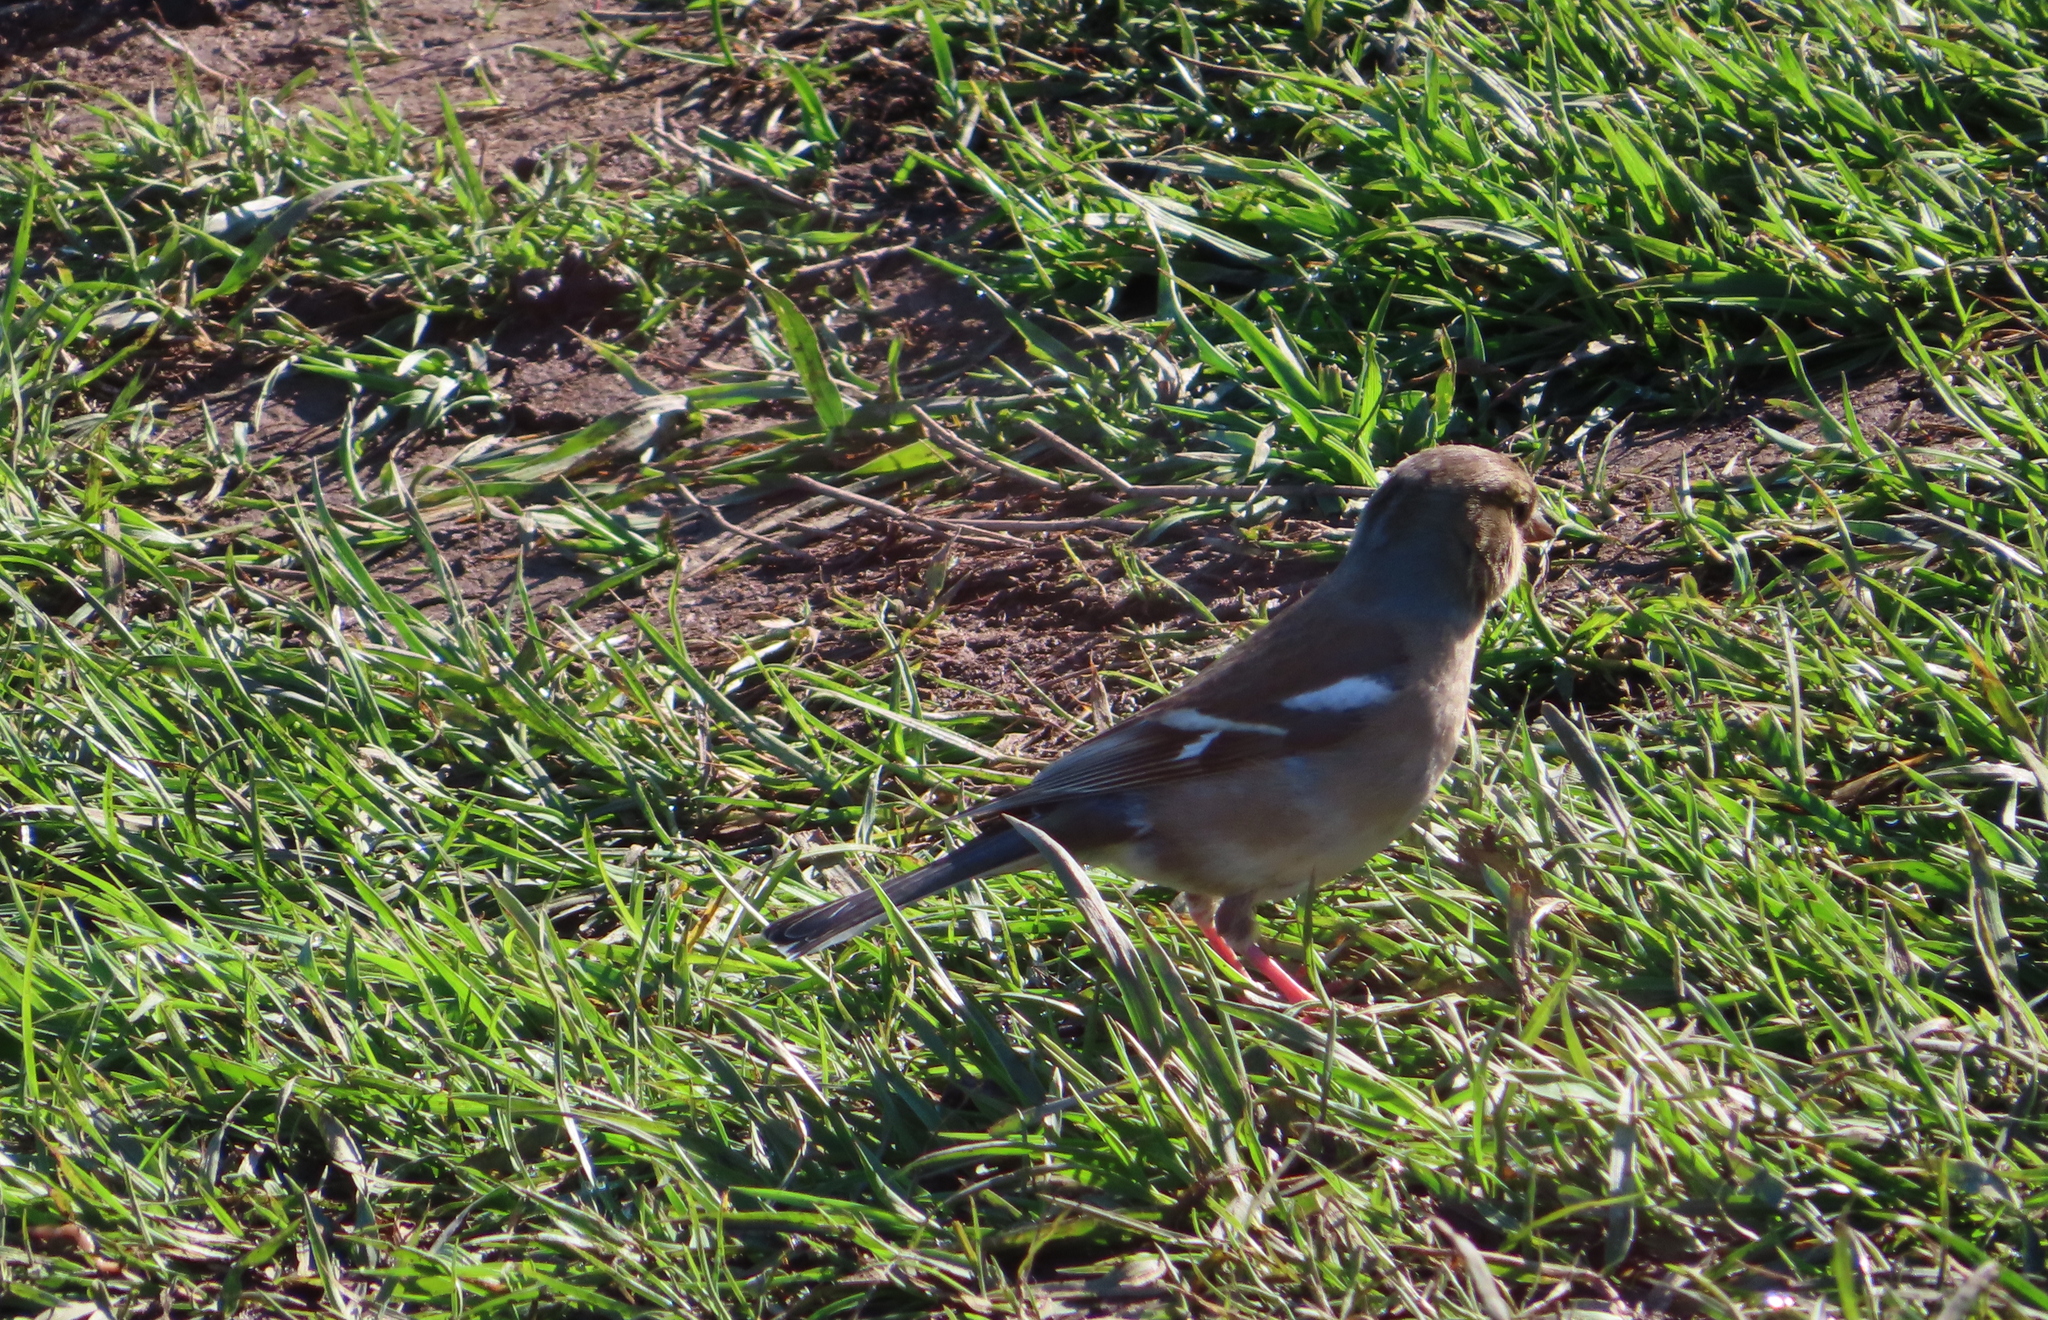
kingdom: Animalia
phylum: Chordata
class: Aves
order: Passeriformes
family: Fringillidae
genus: Fringilla
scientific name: Fringilla coelebs
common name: Common chaffinch
